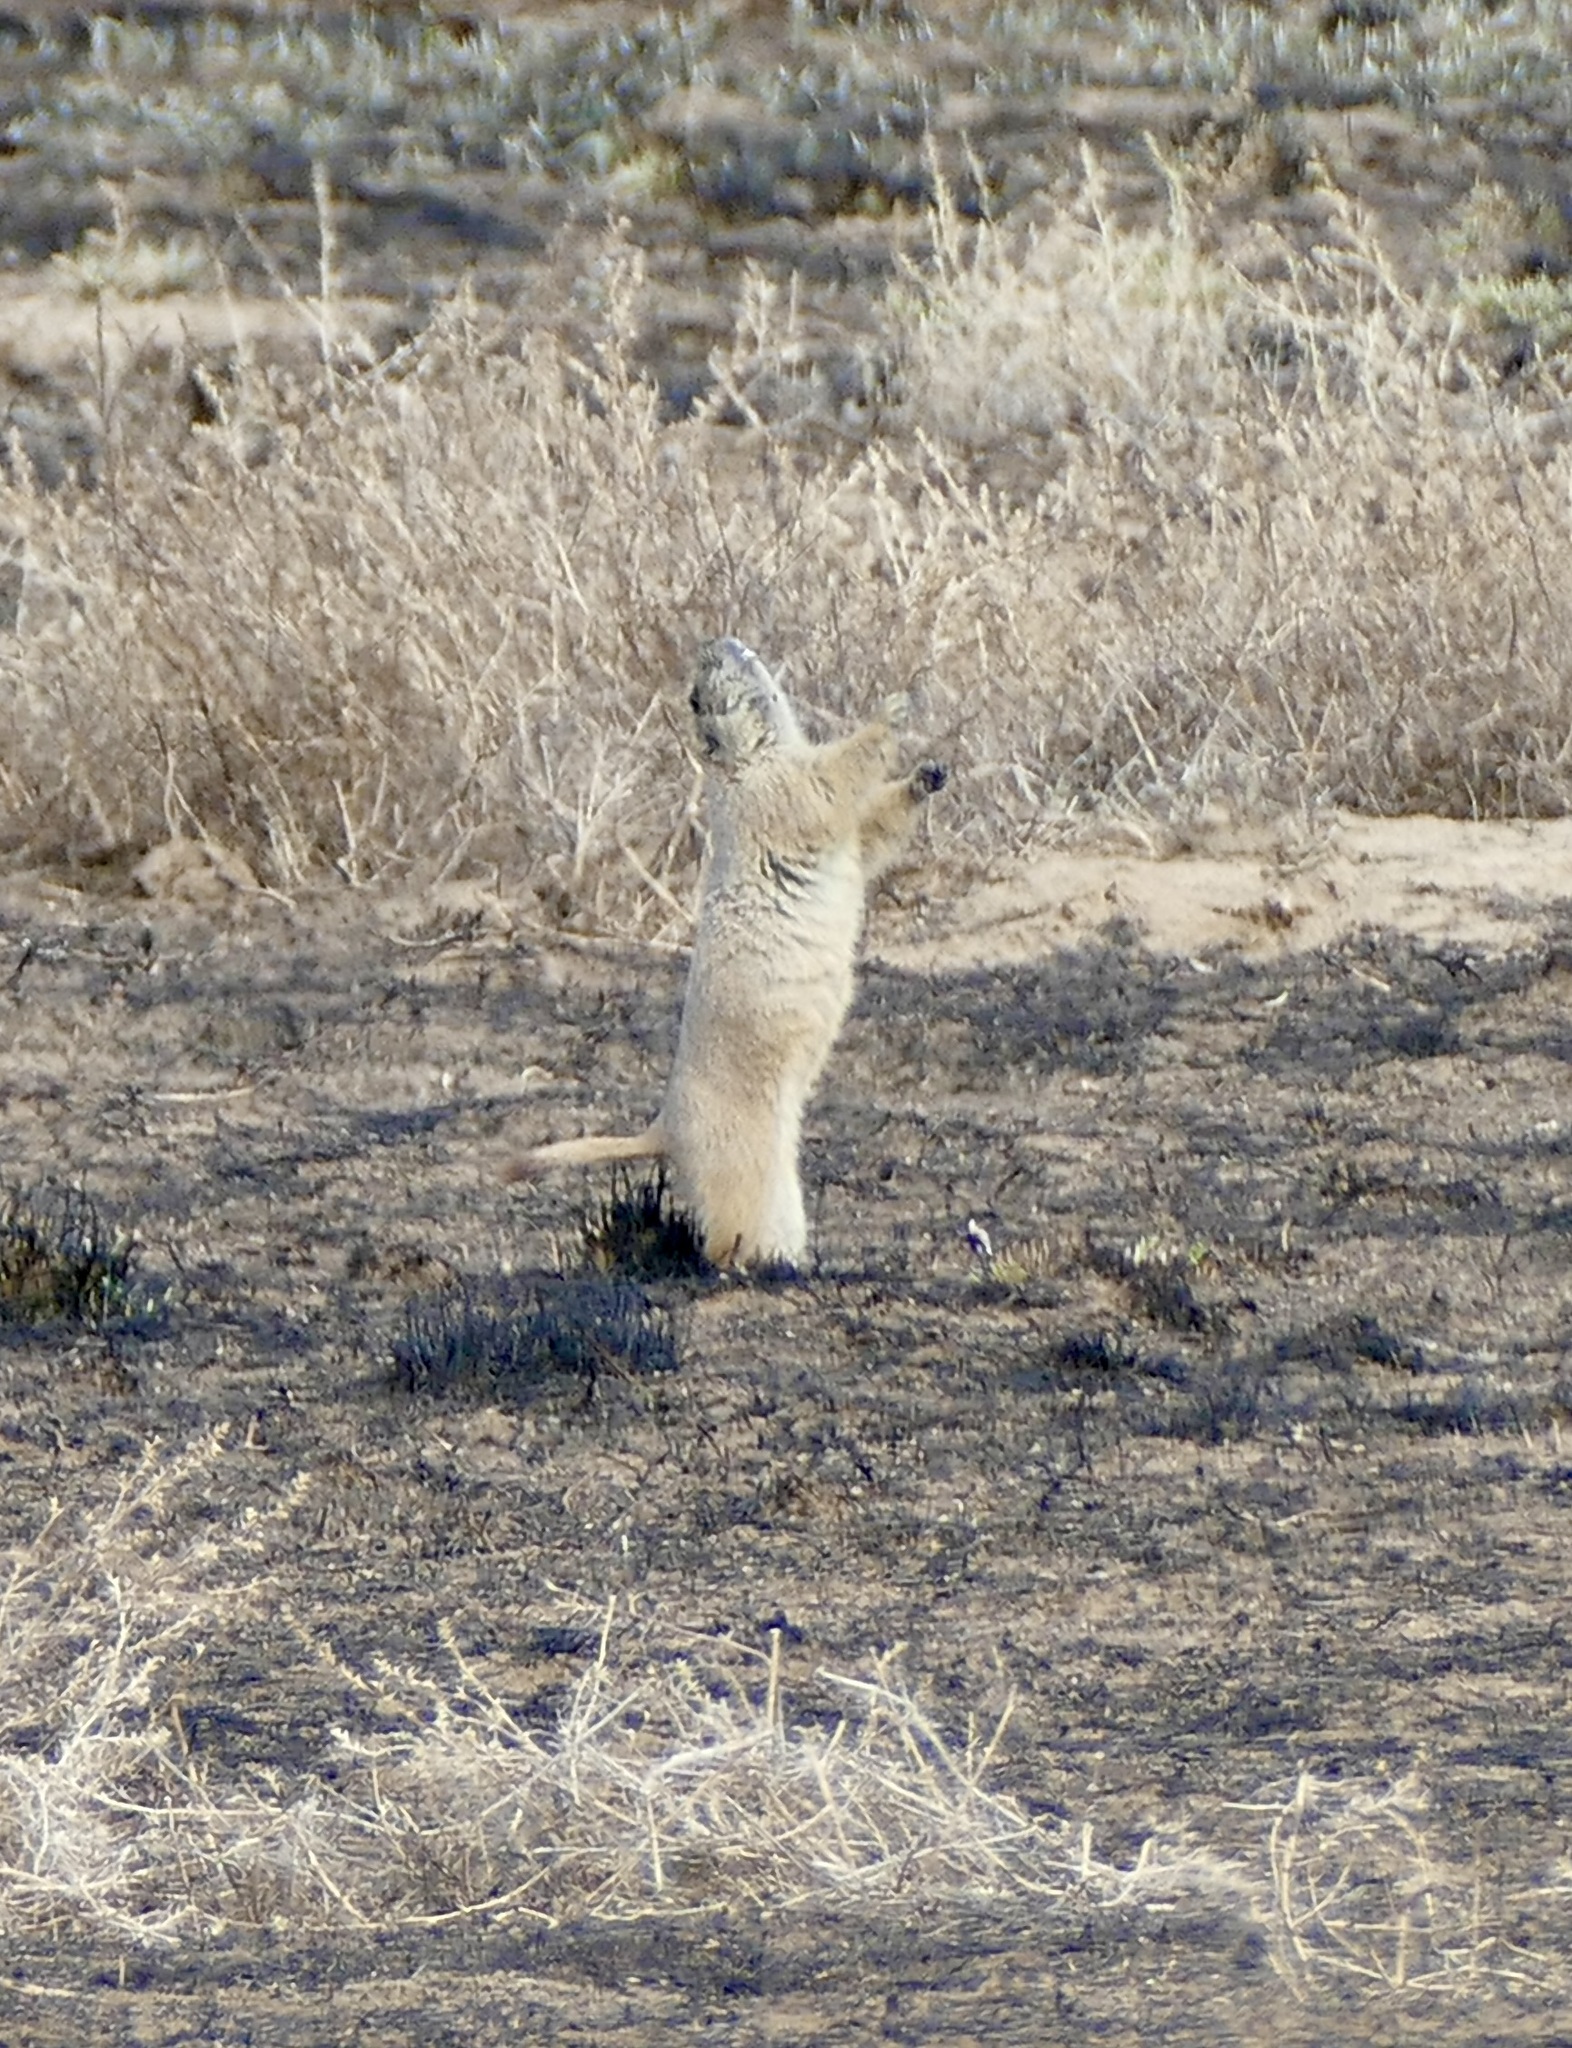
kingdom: Animalia
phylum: Chordata
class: Mammalia
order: Rodentia
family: Sciuridae
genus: Cynomys
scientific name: Cynomys ludovicianus
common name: Black-tailed prairie dog
